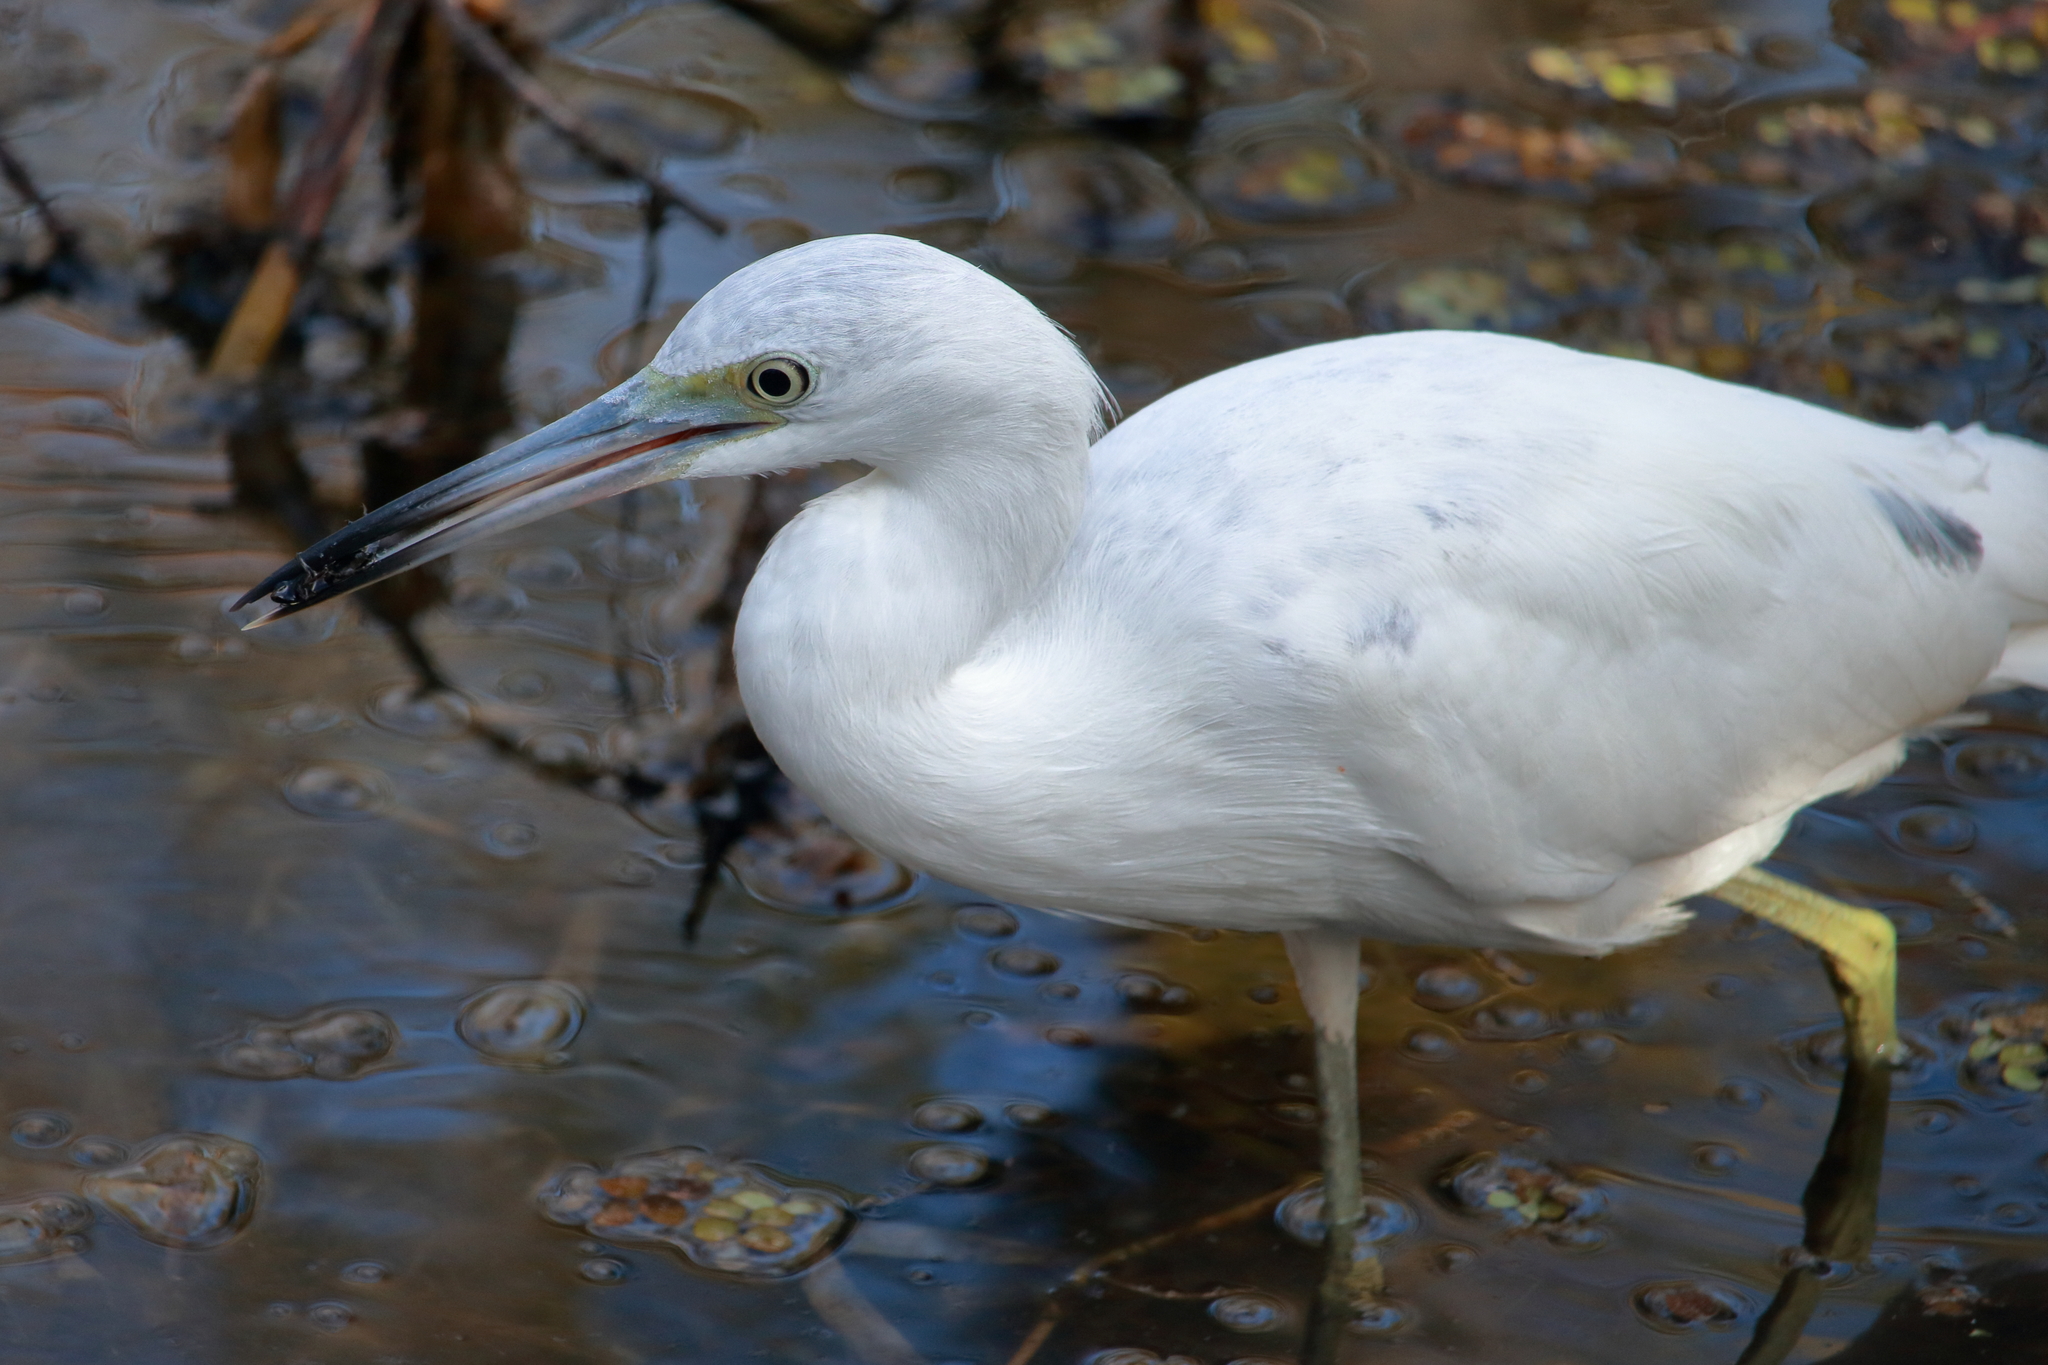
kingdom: Animalia
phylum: Chordata
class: Aves
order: Pelecaniformes
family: Ardeidae
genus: Egretta
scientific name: Egretta caerulea
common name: Little blue heron
